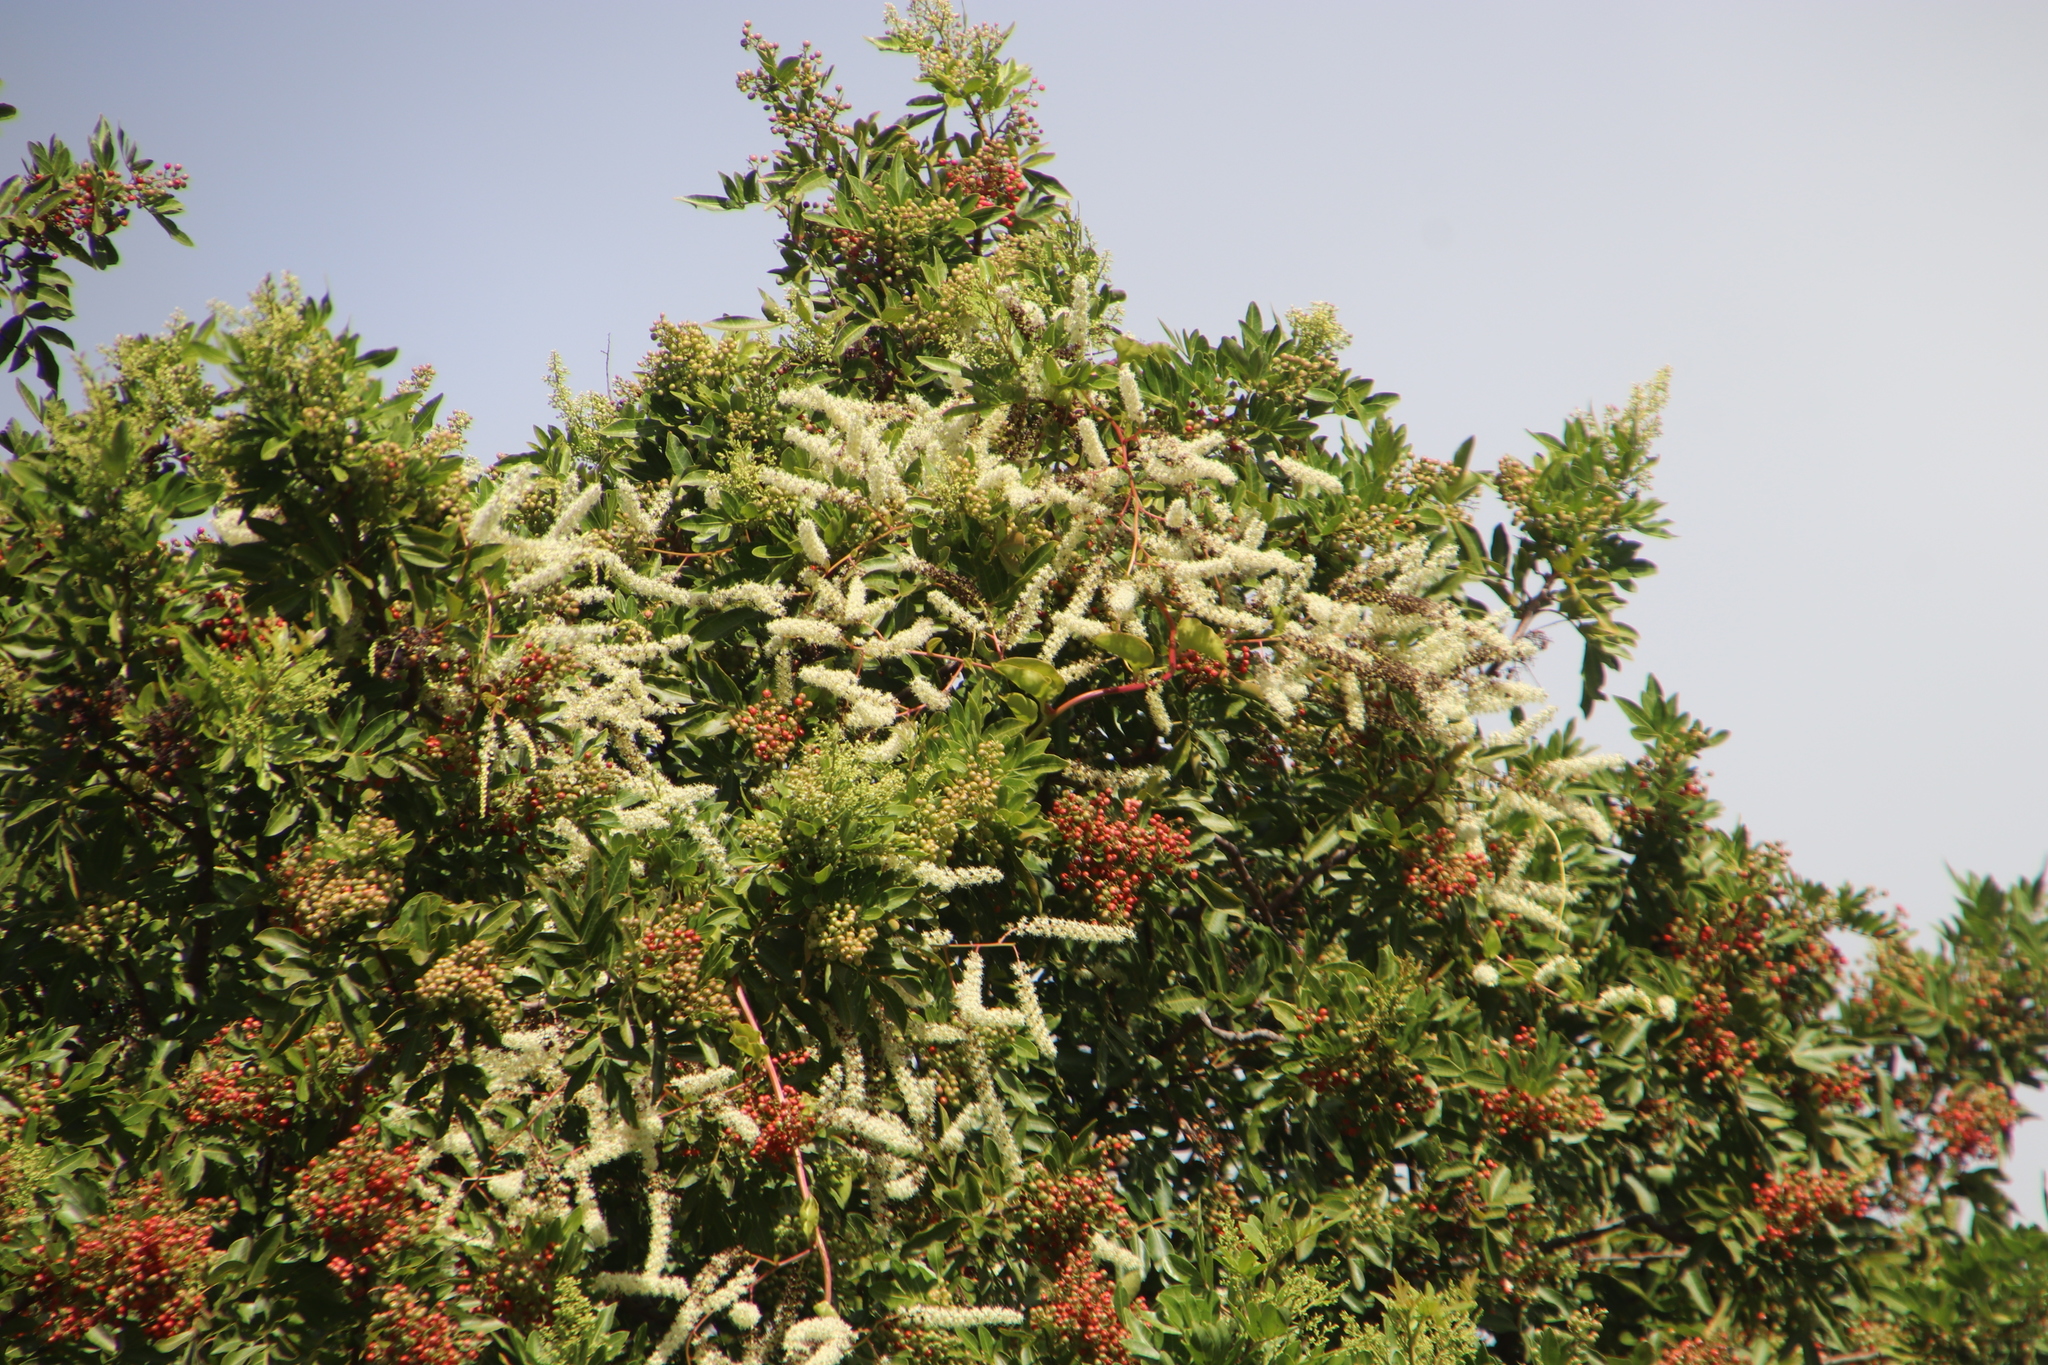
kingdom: Plantae
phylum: Tracheophyta
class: Magnoliopsida
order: Caryophyllales
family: Basellaceae
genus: Anredera
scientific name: Anredera cordifolia
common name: Heartleaf madeiravine
